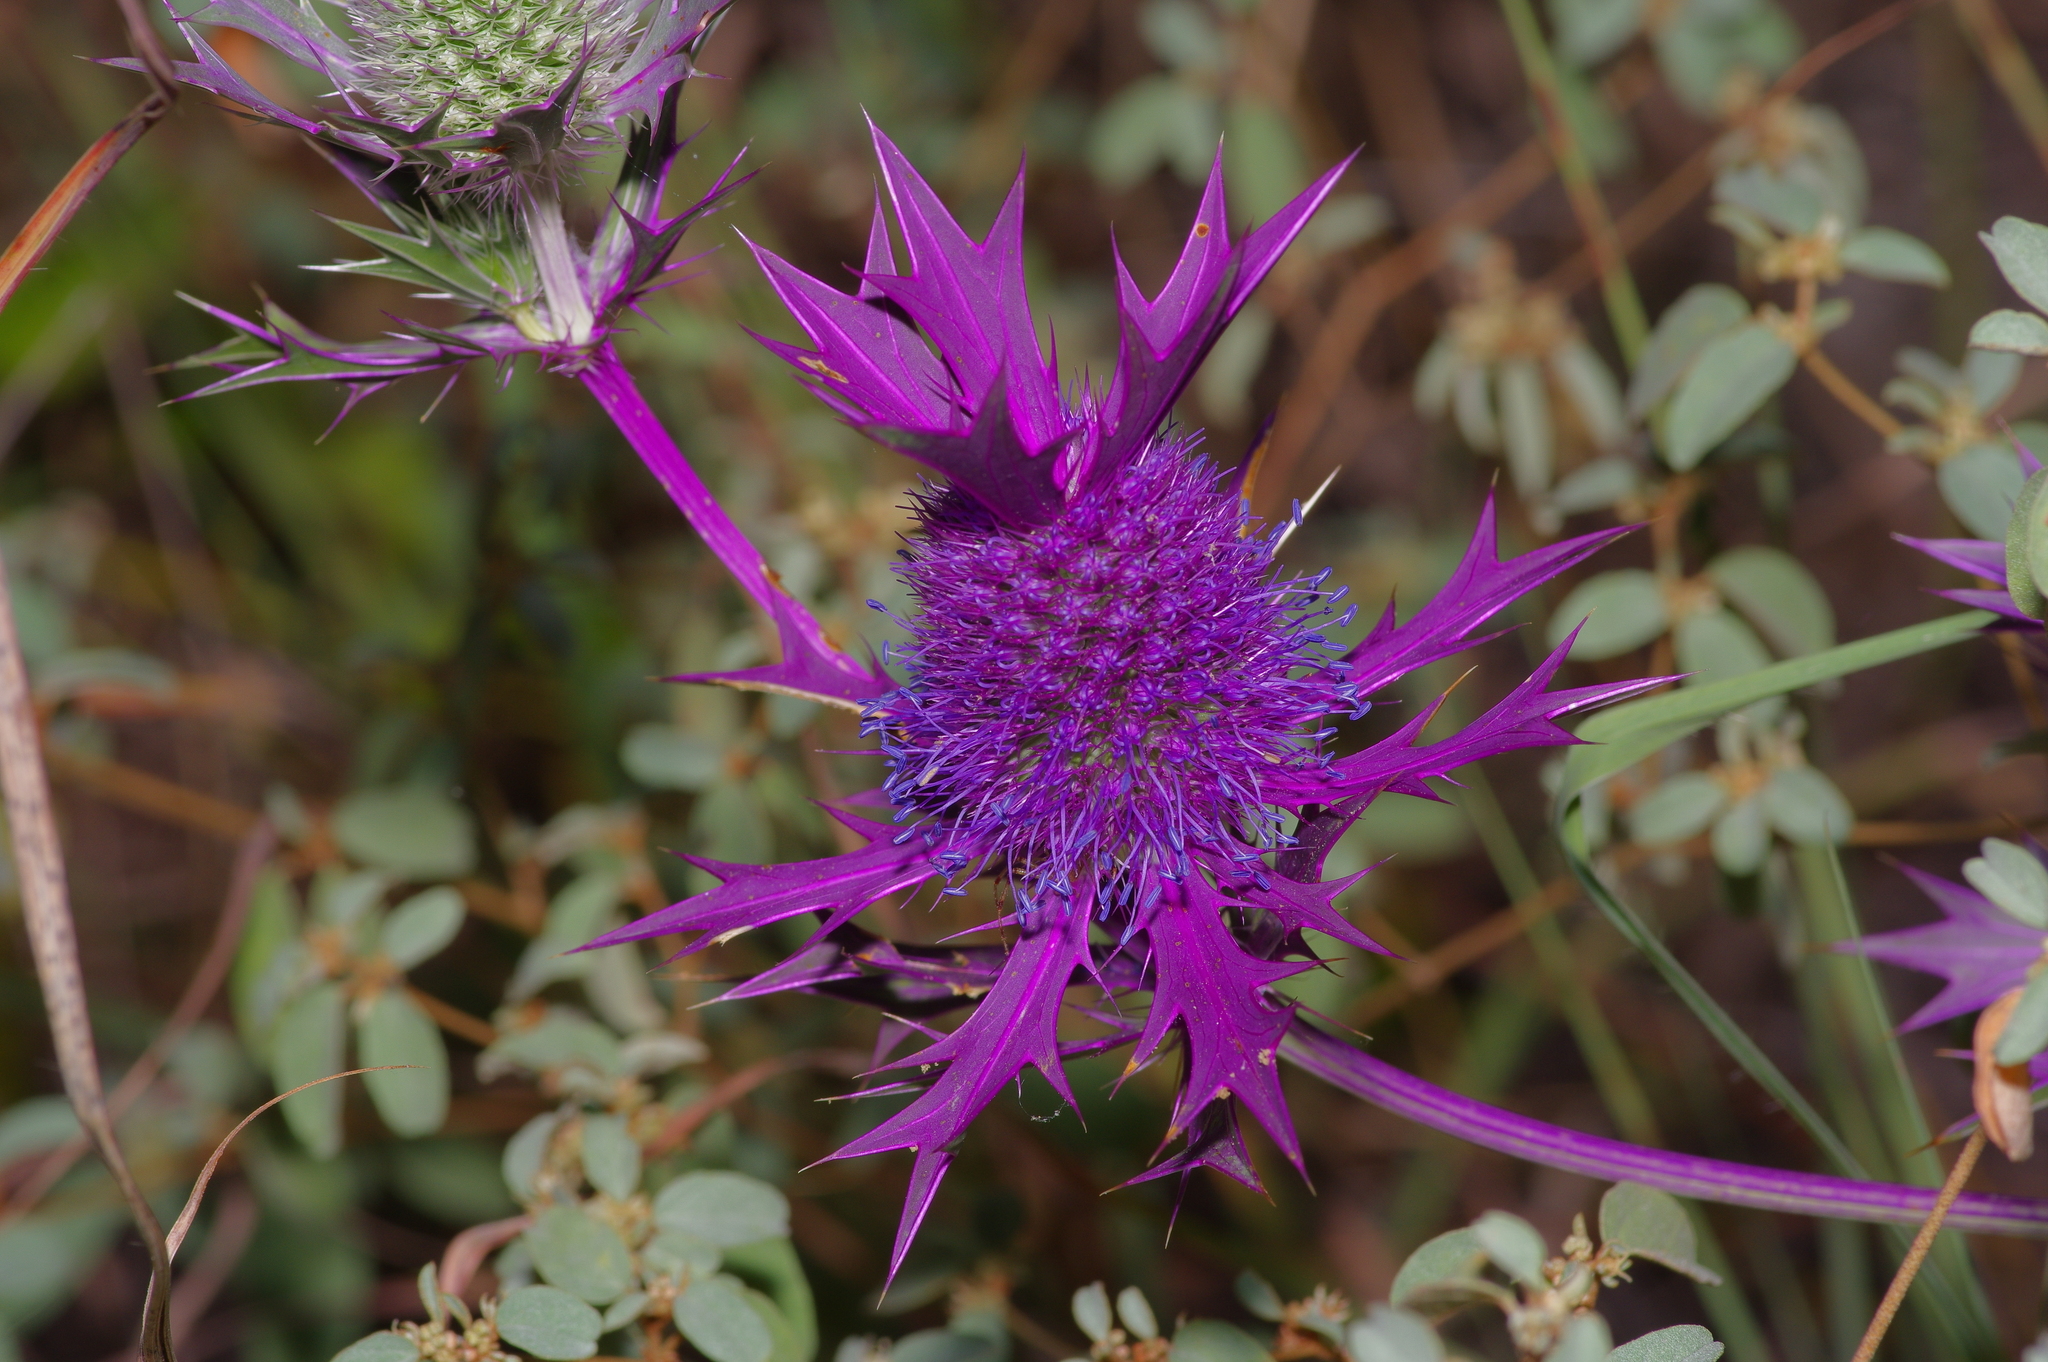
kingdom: Plantae
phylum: Tracheophyta
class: Magnoliopsida
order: Apiales
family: Apiaceae
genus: Eryngium
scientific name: Eryngium leavenworthii
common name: Leavenworth's eryngo
